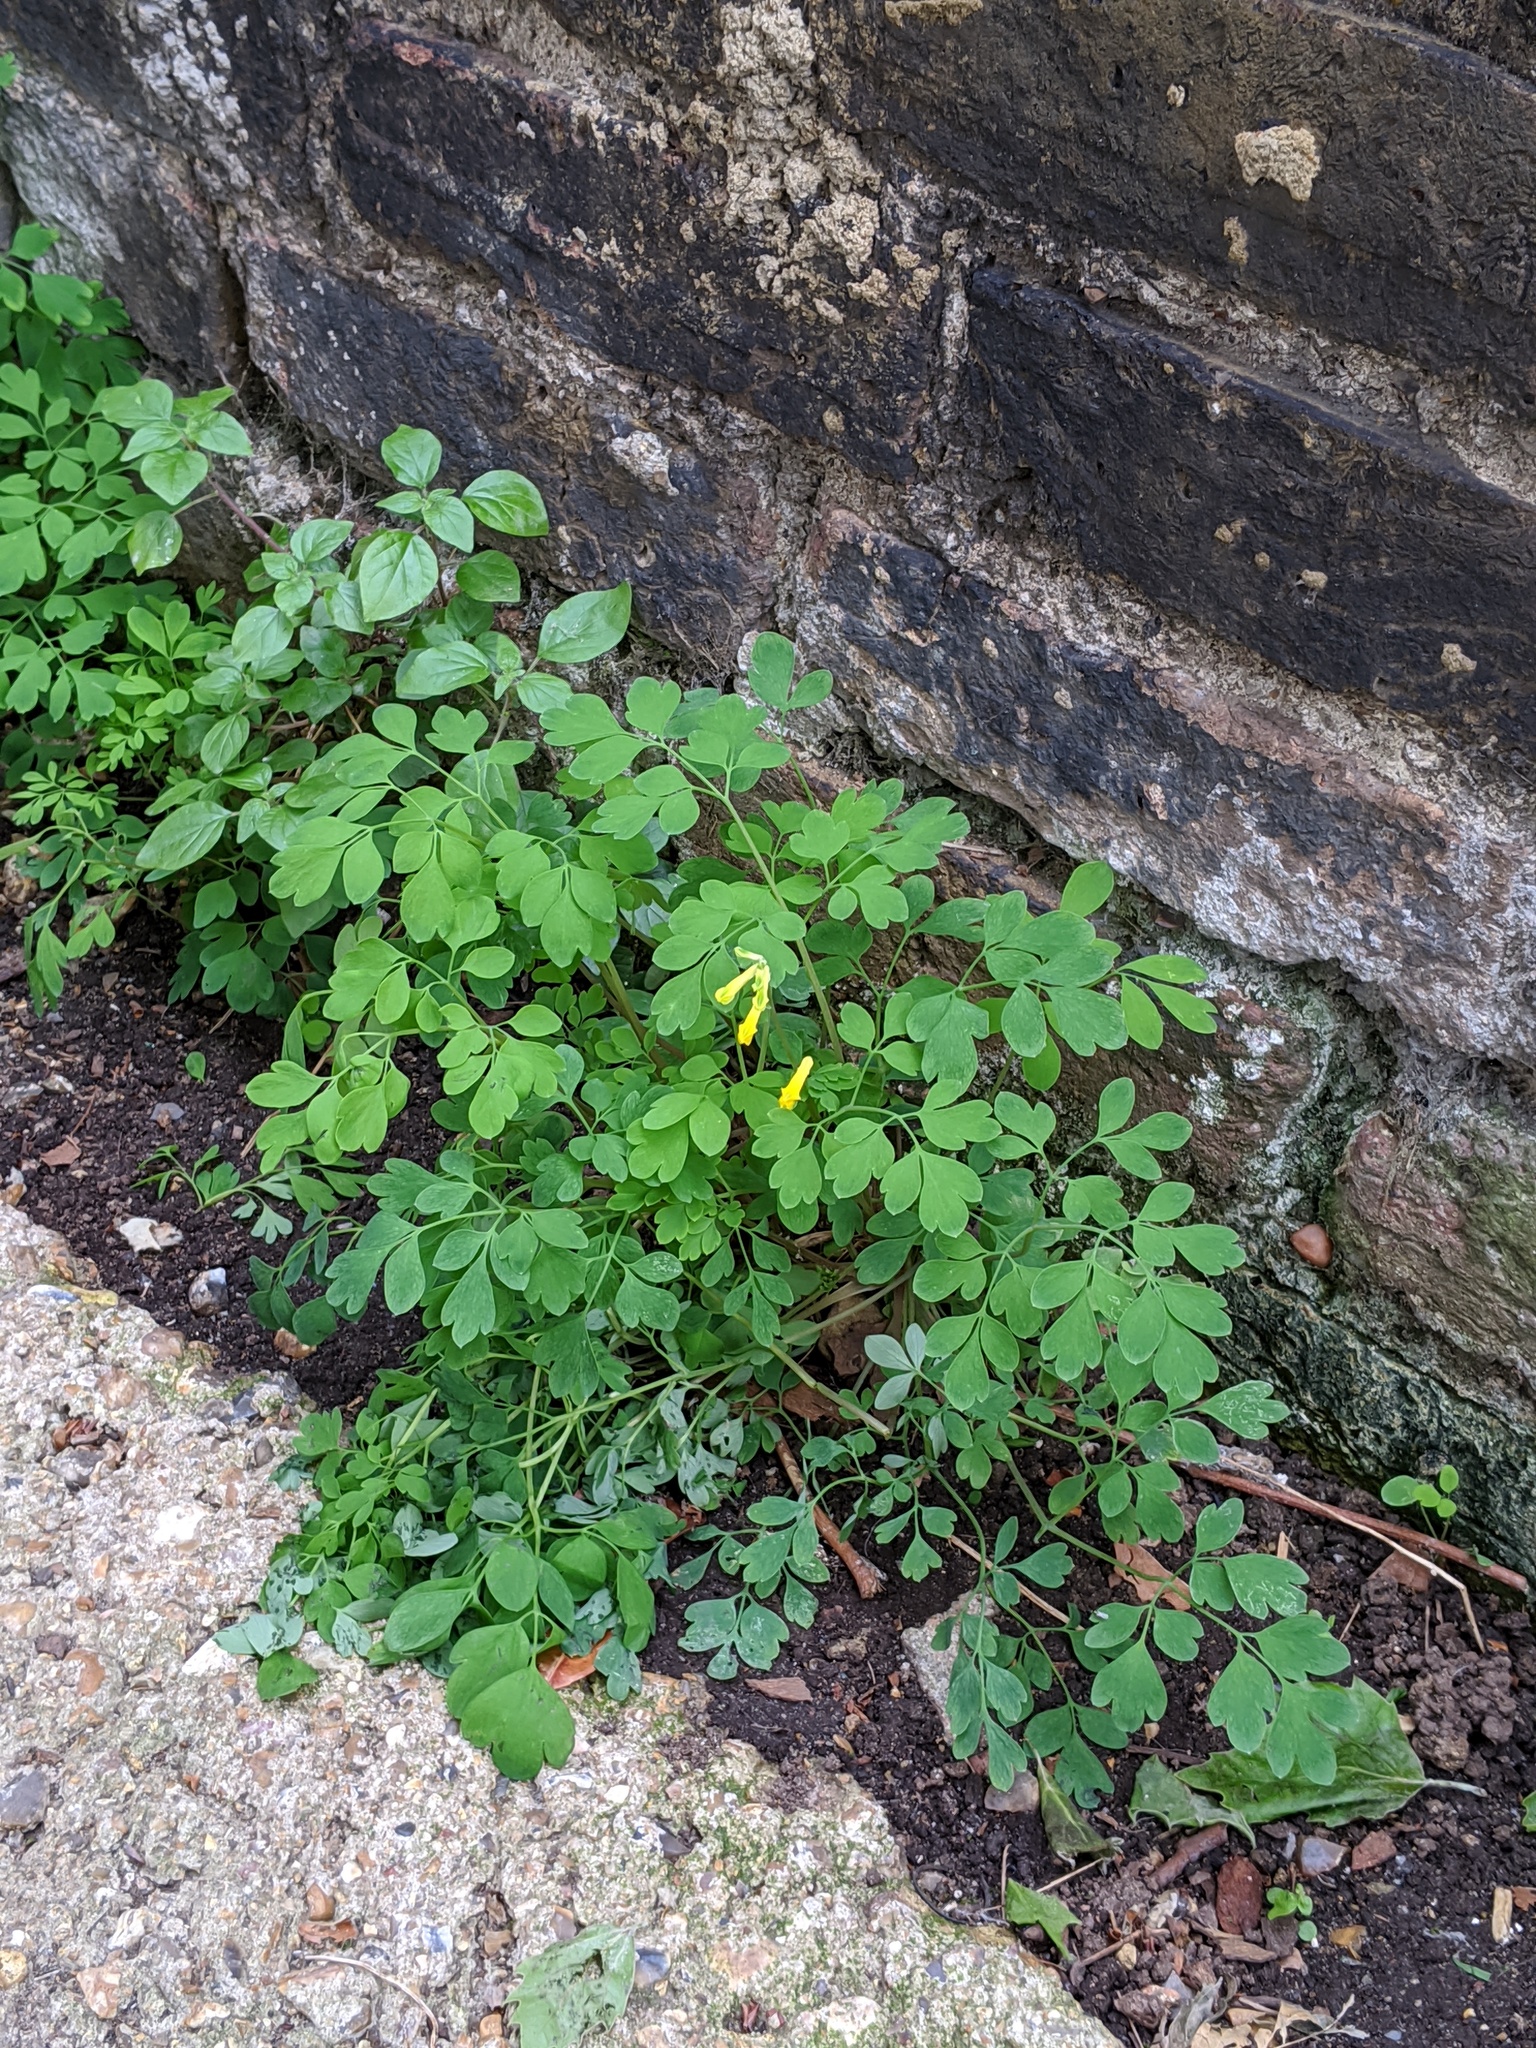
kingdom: Plantae
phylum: Tracheophyta
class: Magnoliopsida
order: Ranunculales
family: Papaveraceae
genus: Pseudofumaria
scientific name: Pseudofumaria lutea
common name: Yellow corydalis
